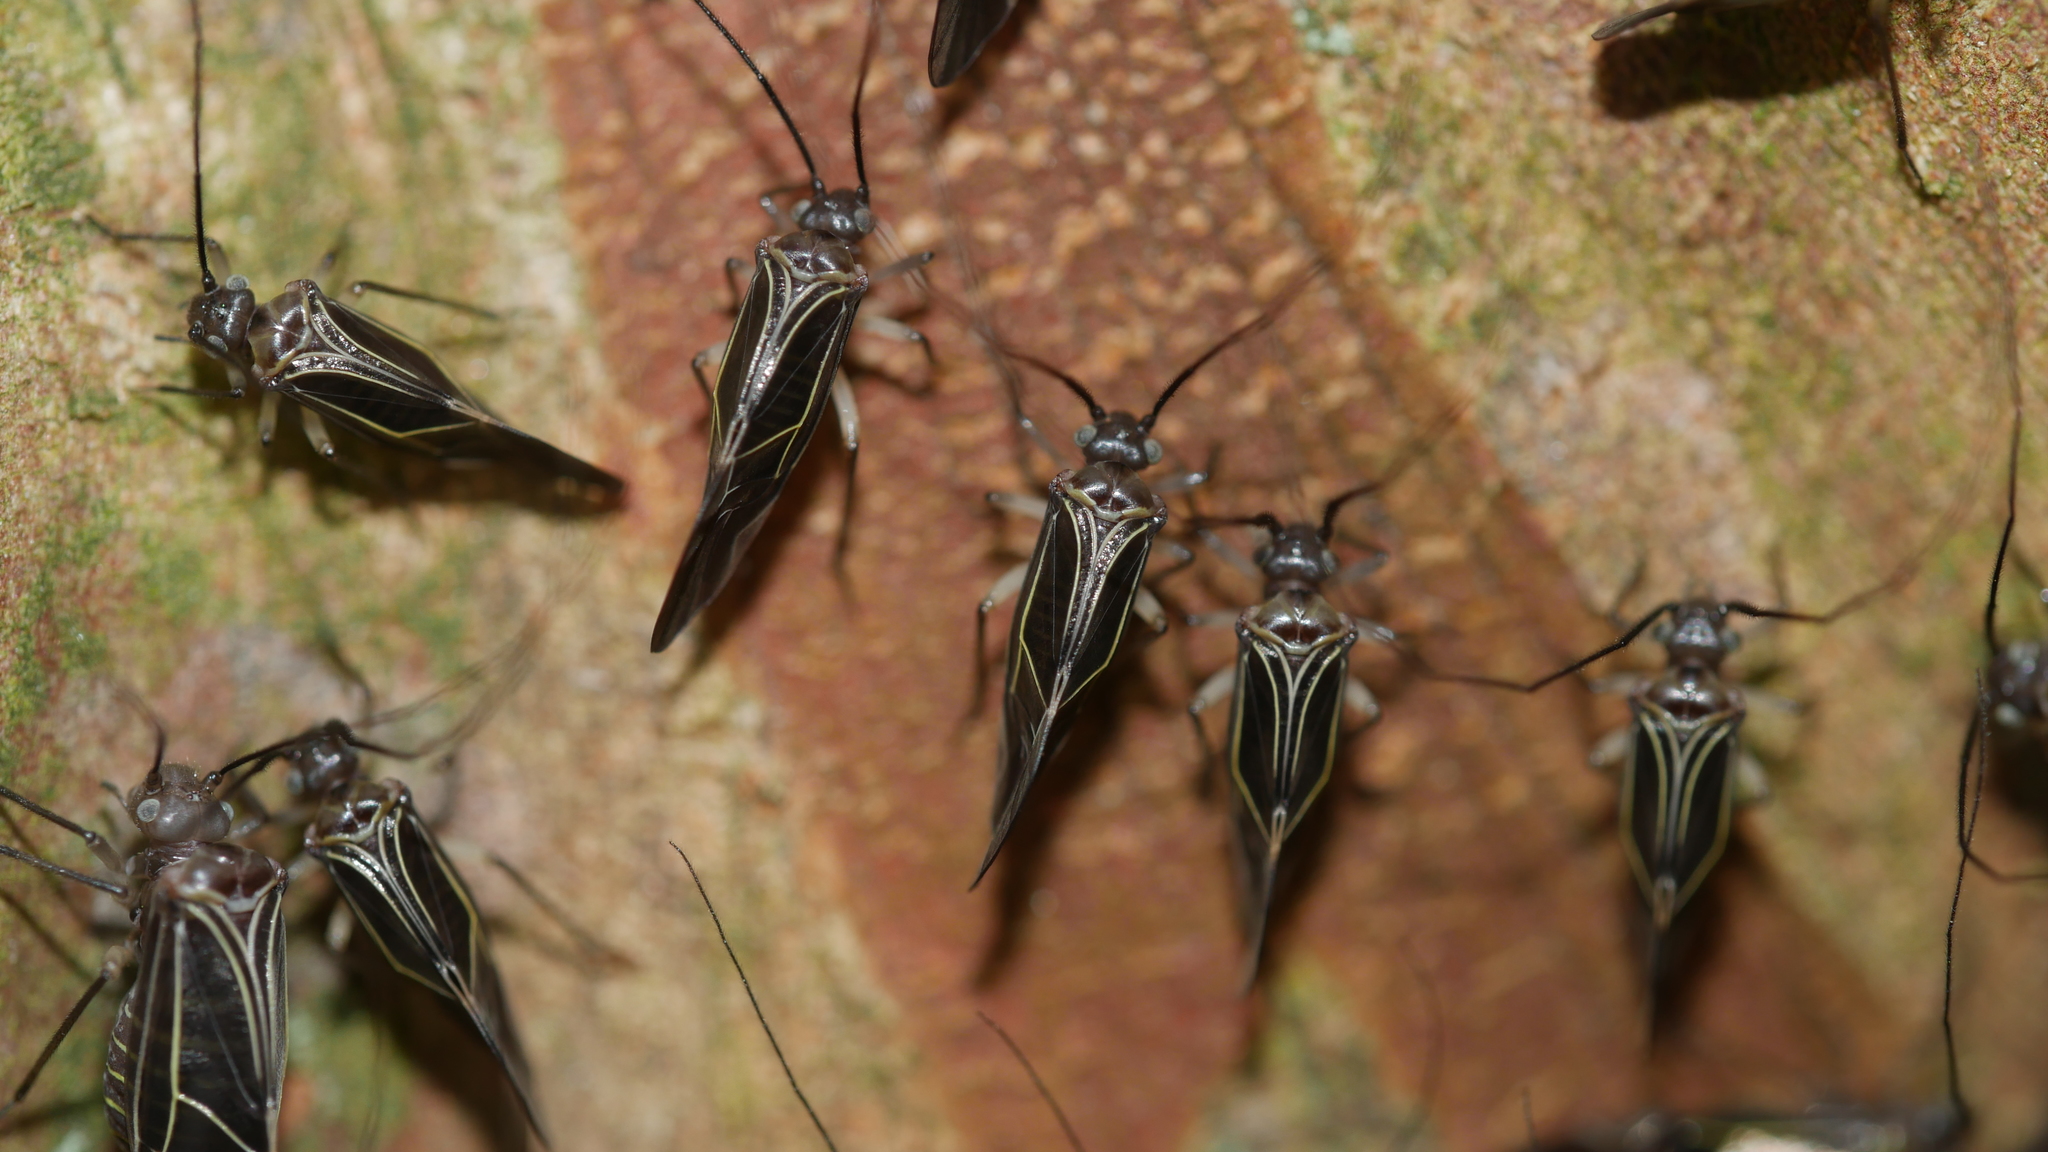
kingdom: Animalia
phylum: Arthropoda
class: Insecta
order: Psocodea
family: Psocidae
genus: Cerastipsocus
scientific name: Cerastipsocus venosus
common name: Tree cattle
